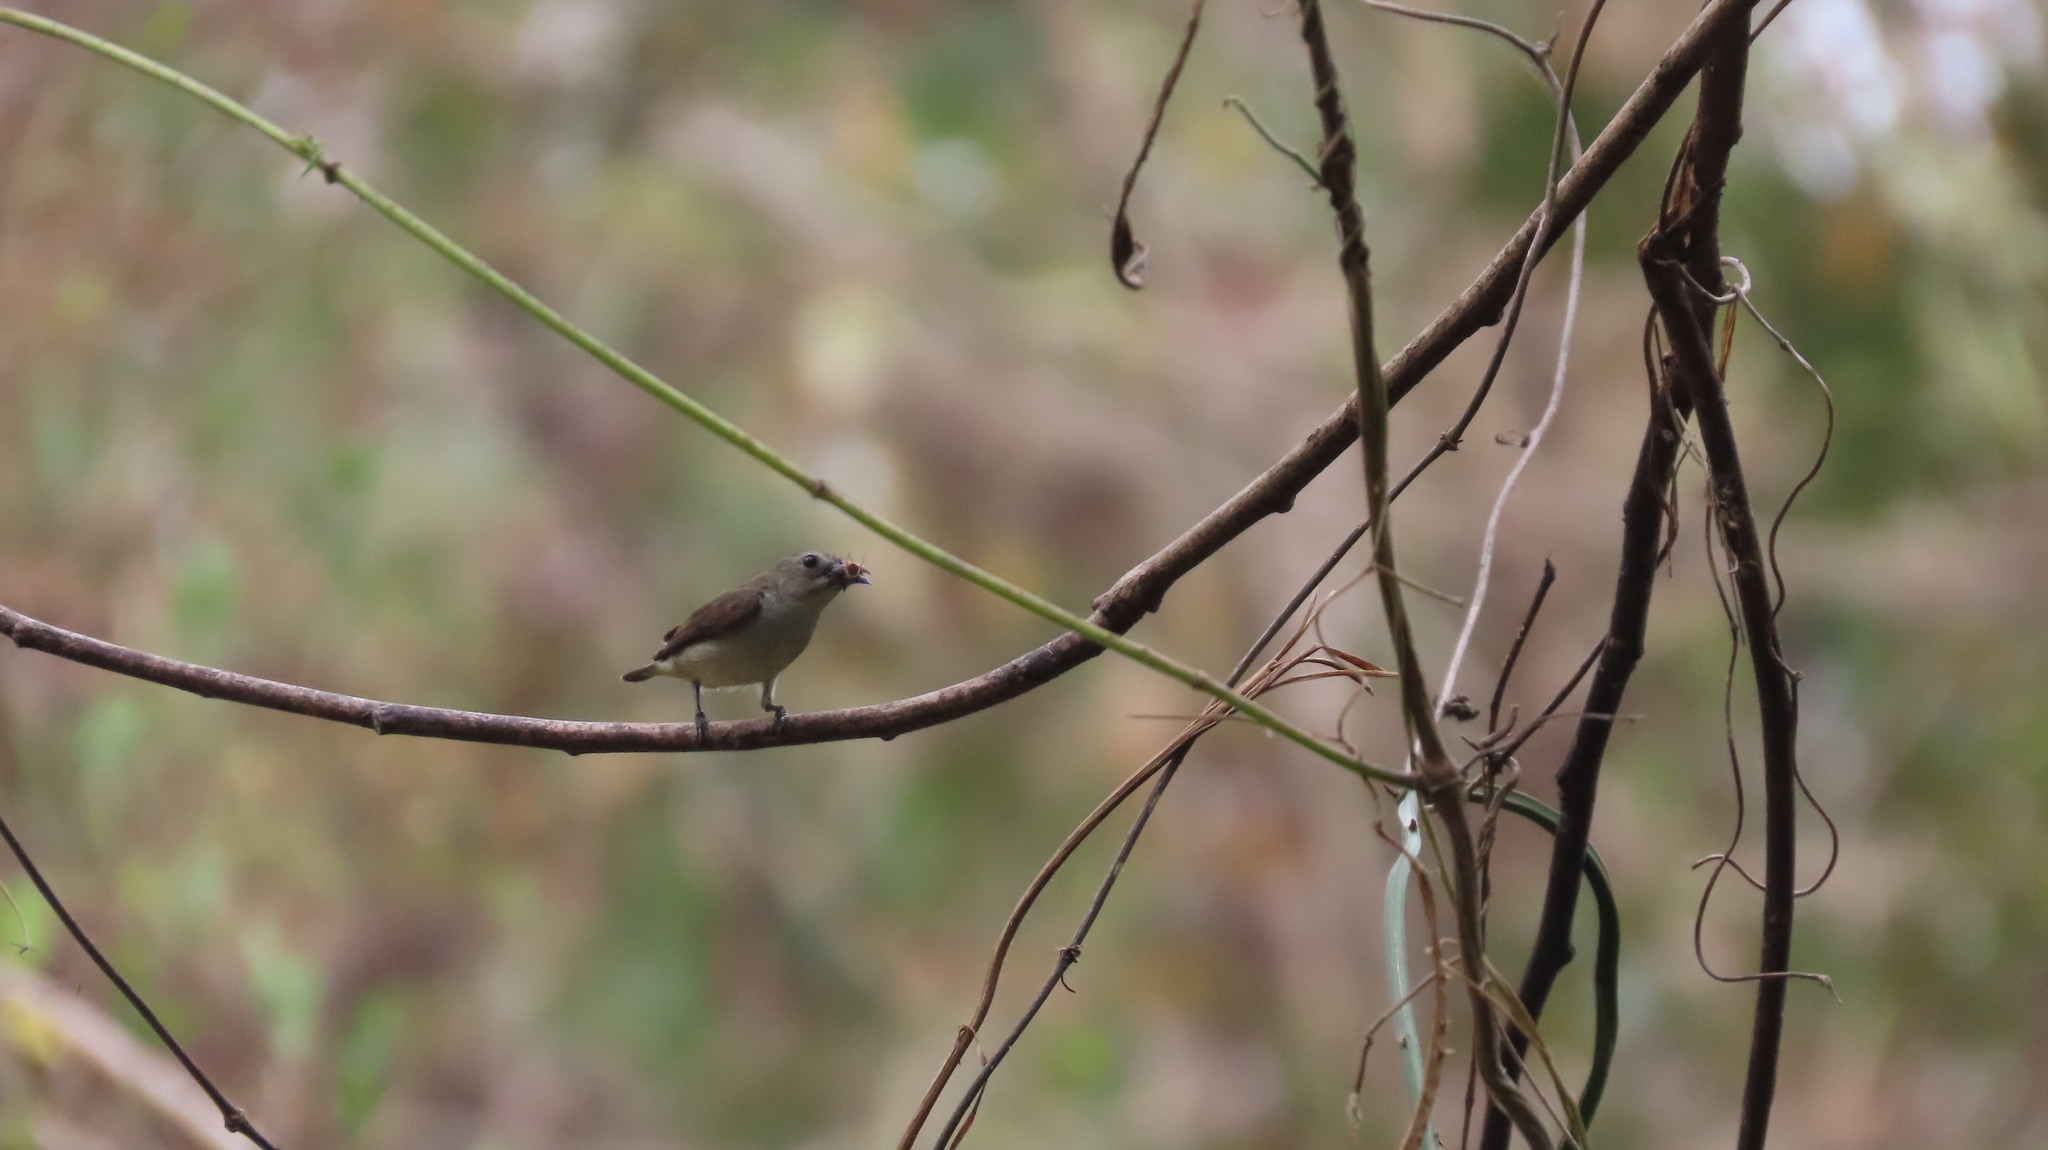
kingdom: Animalia
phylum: Chordata
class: Aves
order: Passeriformes
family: Dicaeidae
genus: Dicaeum
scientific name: Dicaeum concolor
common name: Nilgiri flowerpecker
